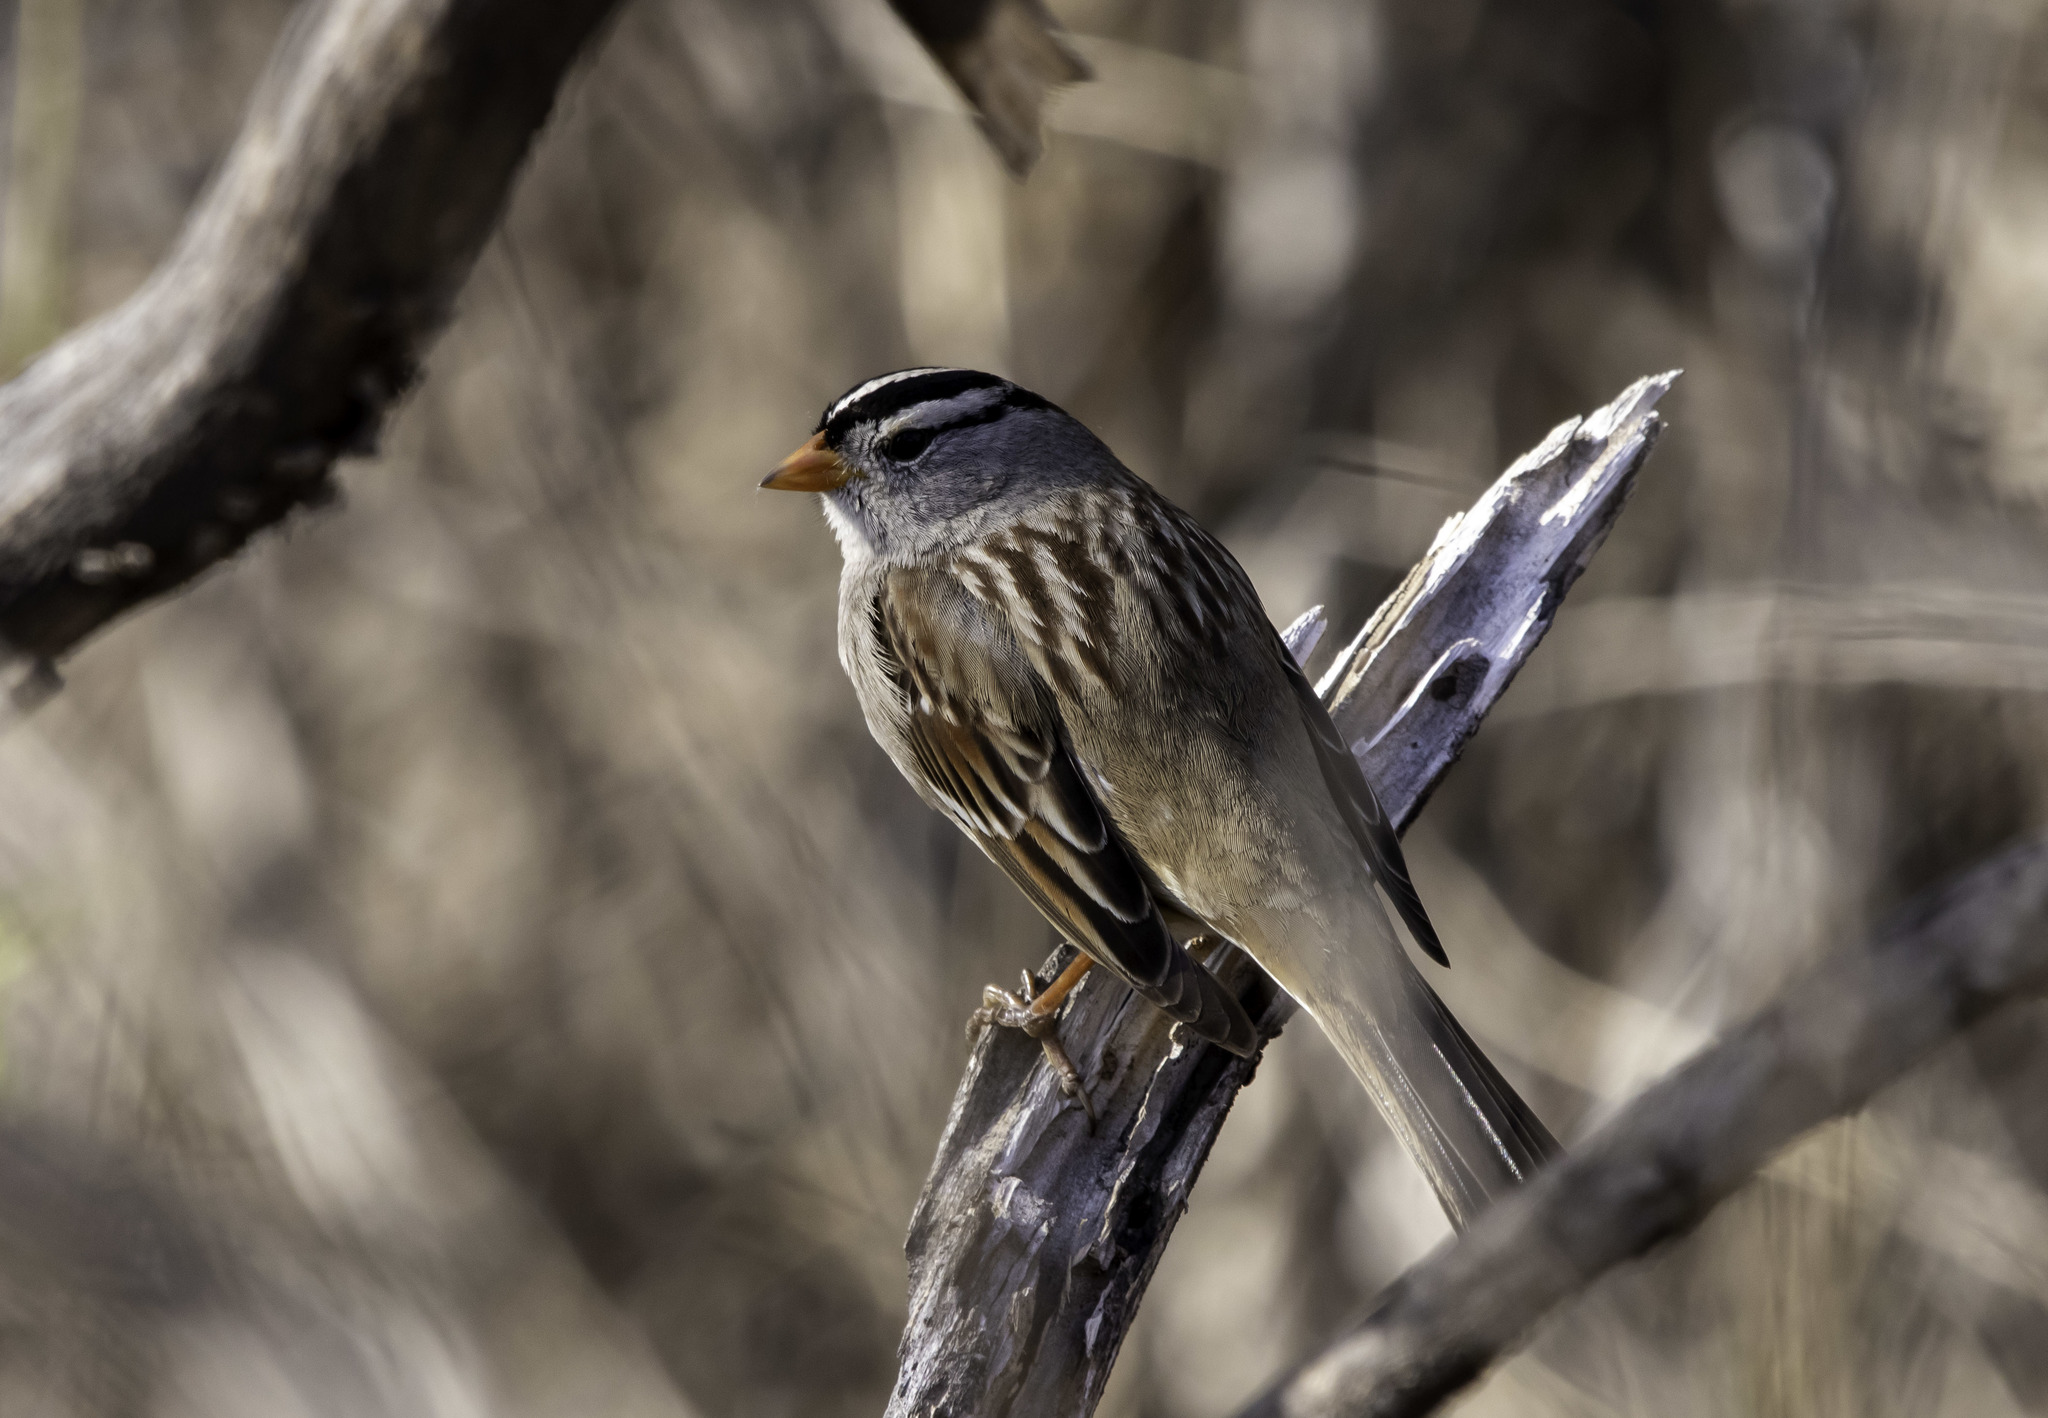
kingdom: Animalia
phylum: Chordata
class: Aves
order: Passeriformes
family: Passerellidae
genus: Zonotrichia
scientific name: Zonotrichia leucophrys
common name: White-crowned sparrow
